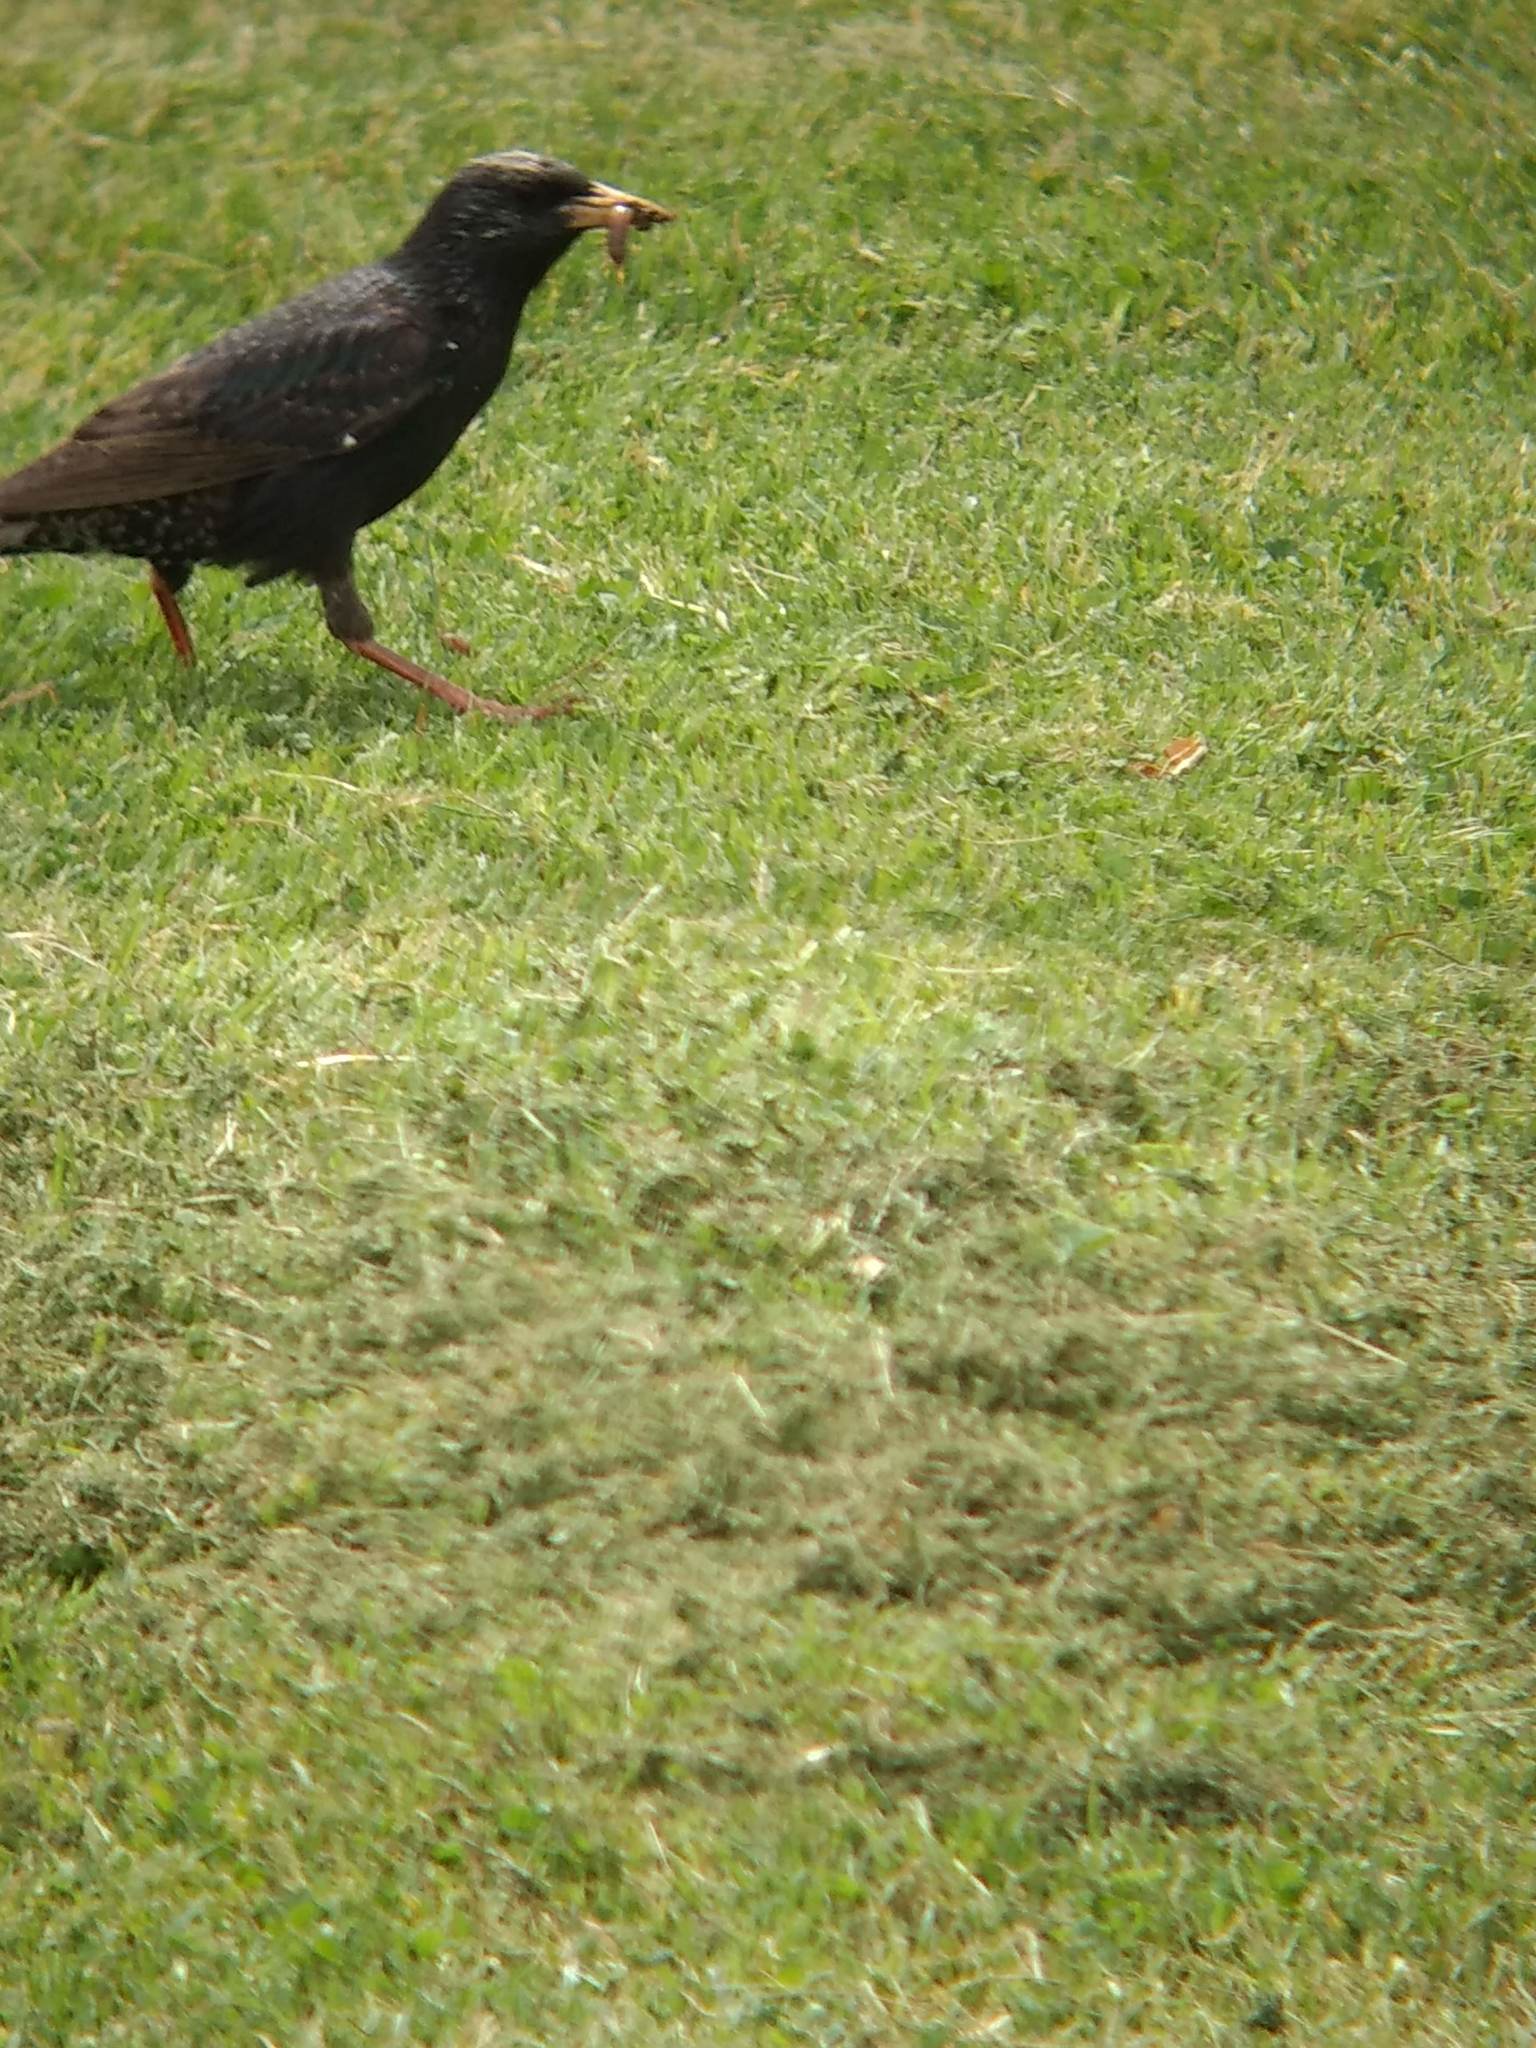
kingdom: Animalia
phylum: Chordata
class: Aves
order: Passeriformes
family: Sturnidae
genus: Sturnus
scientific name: Sturnus vulgaris
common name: Common starling
